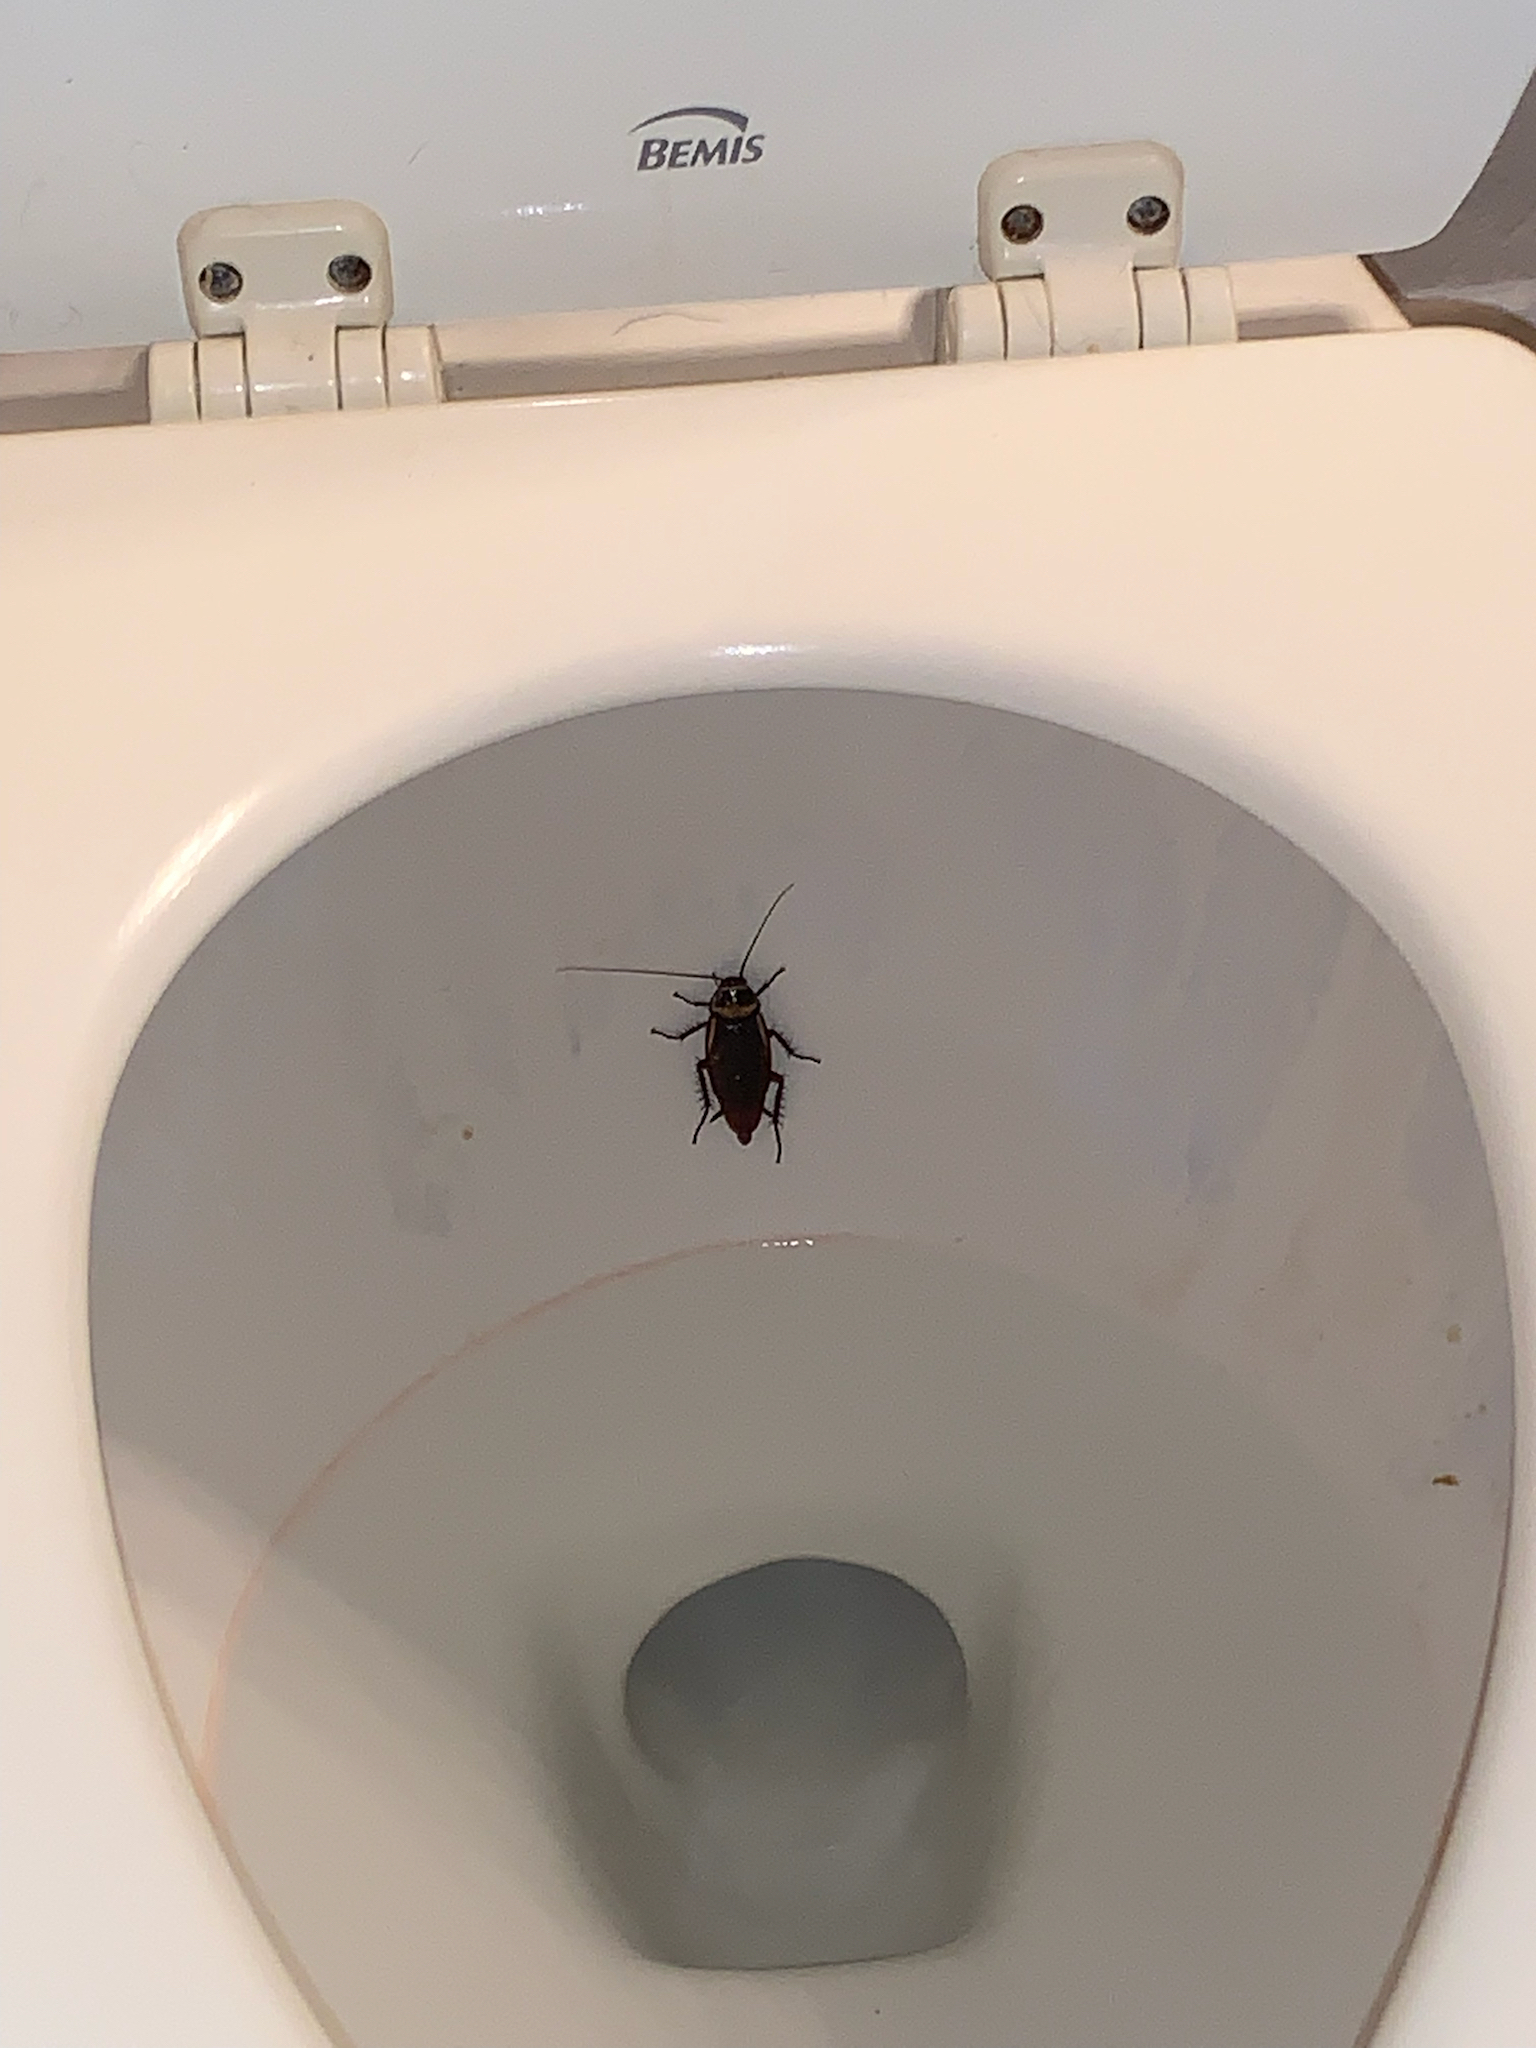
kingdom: Animalia
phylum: Arthropoda
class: Insecta
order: Blattodea
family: Blattidae
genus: Periplaneta
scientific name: Periplaneta australasiae
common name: Australian cockroach
